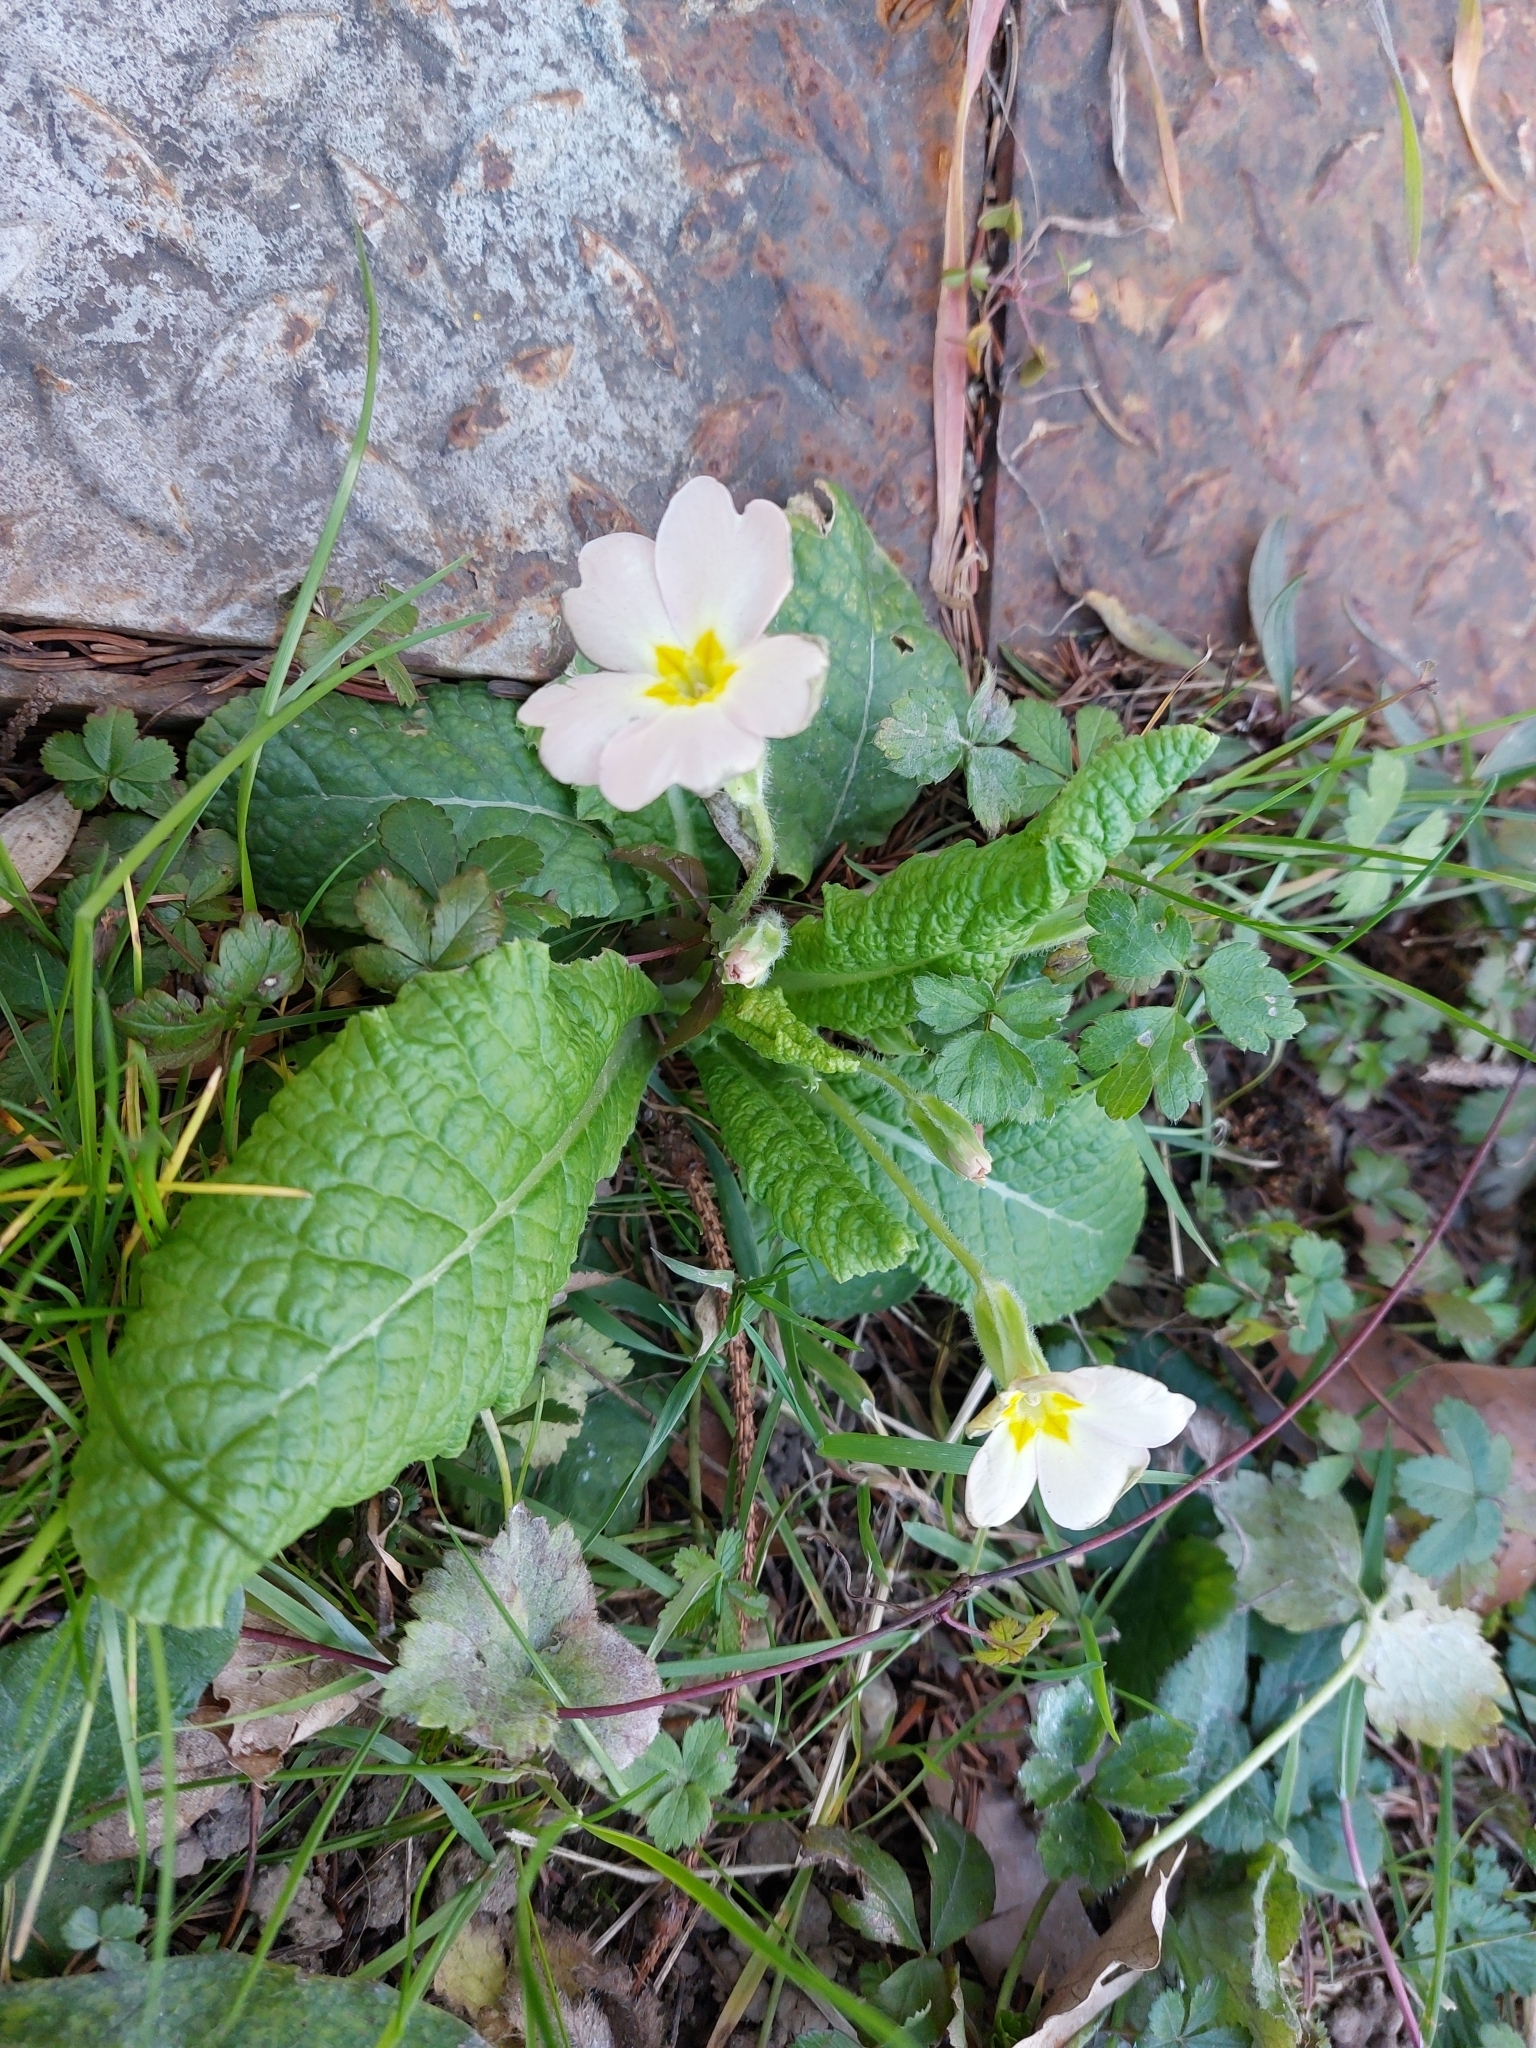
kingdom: Plantae
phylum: Tracheophyta
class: Magnoliopsida
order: Ericales
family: Primulaceae
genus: Primula
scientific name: Primula vulgaris
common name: Primrose
